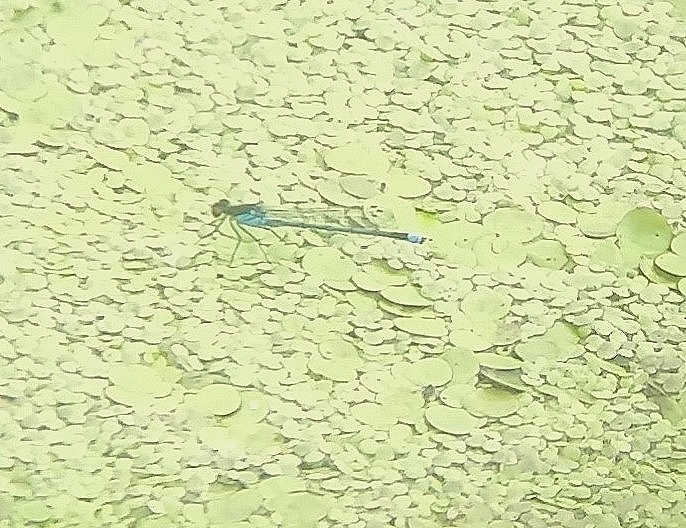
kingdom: Animalia
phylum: Arthropoda
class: Insecta
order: Odonata
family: Coenagrionidae
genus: Erythromma
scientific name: Erythromma najas
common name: Red-eyed damselfly
